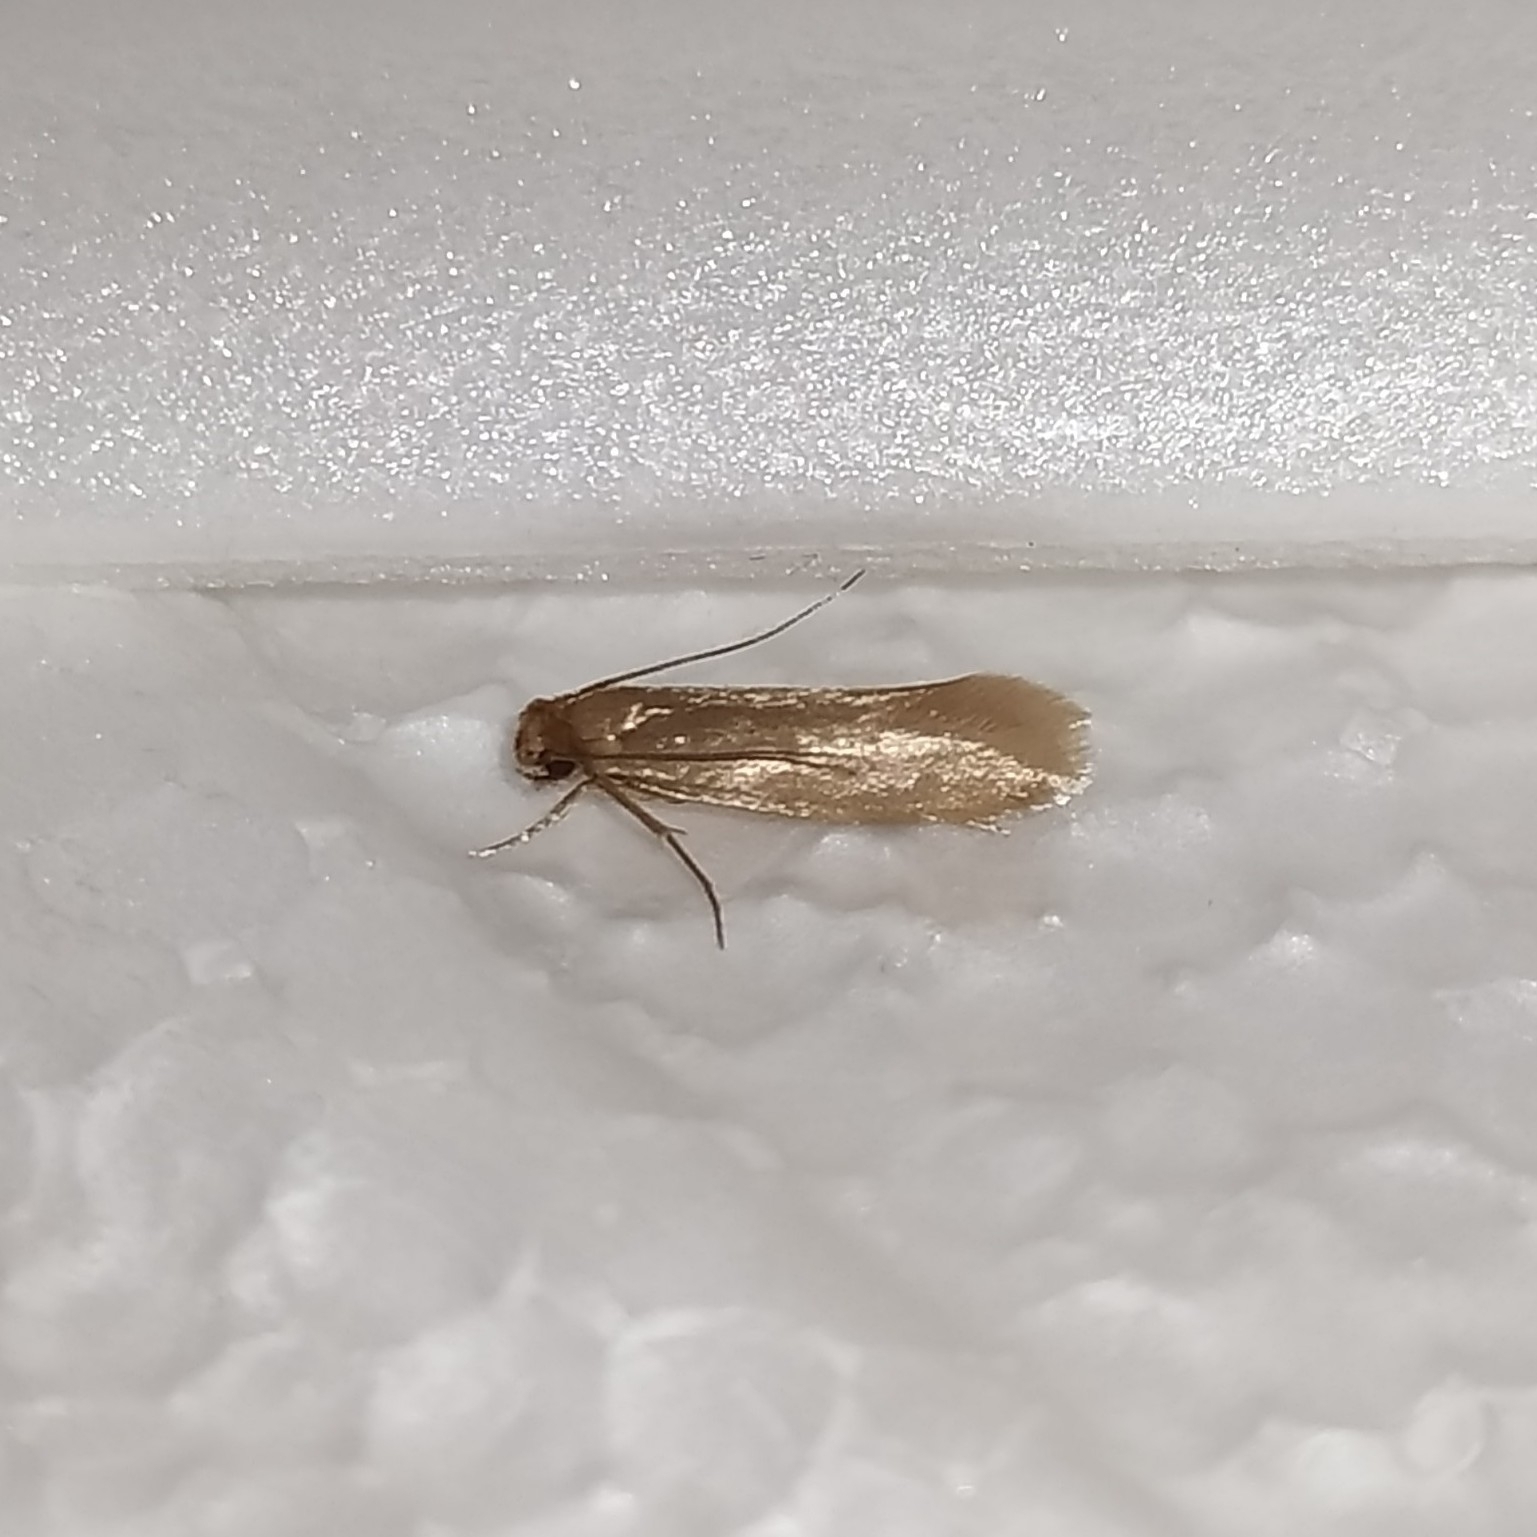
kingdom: Animalia
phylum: Arthropoda
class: Insecta
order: Lepidoptera
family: Tineidae
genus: Tineola
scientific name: Tineola bisselliella
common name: Webbing clothes moth
